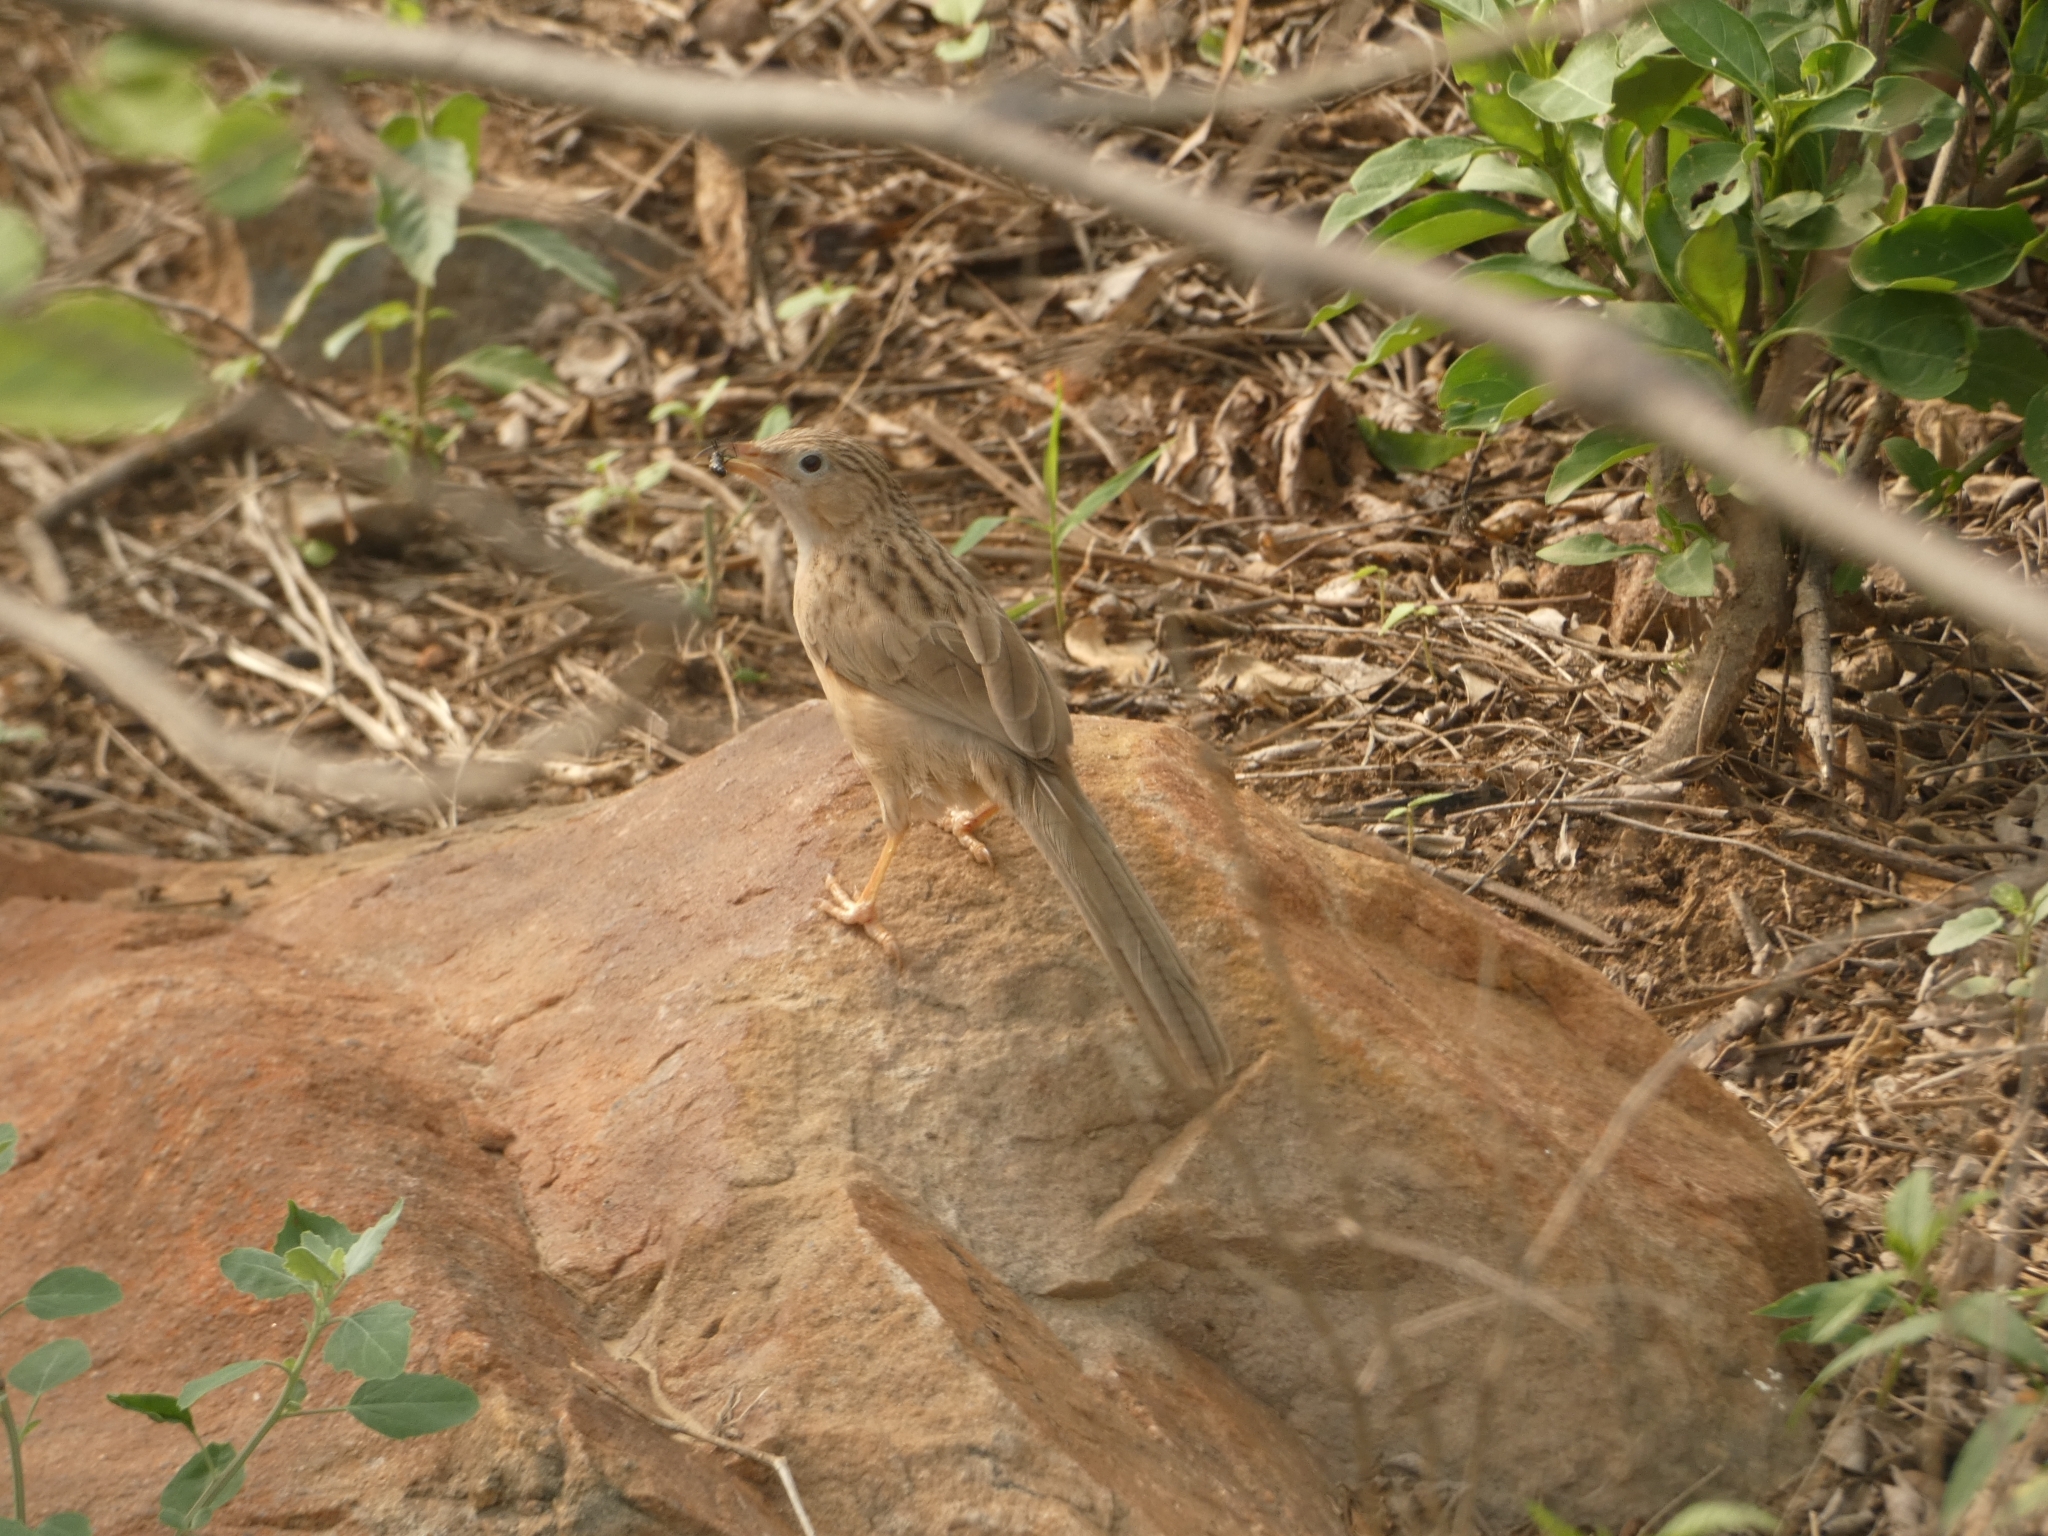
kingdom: Animalia
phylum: Chordata
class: Aves
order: Passeriformes
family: Leiothrichidae
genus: Turdoides
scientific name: Turdoides caudata
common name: Common babbler
